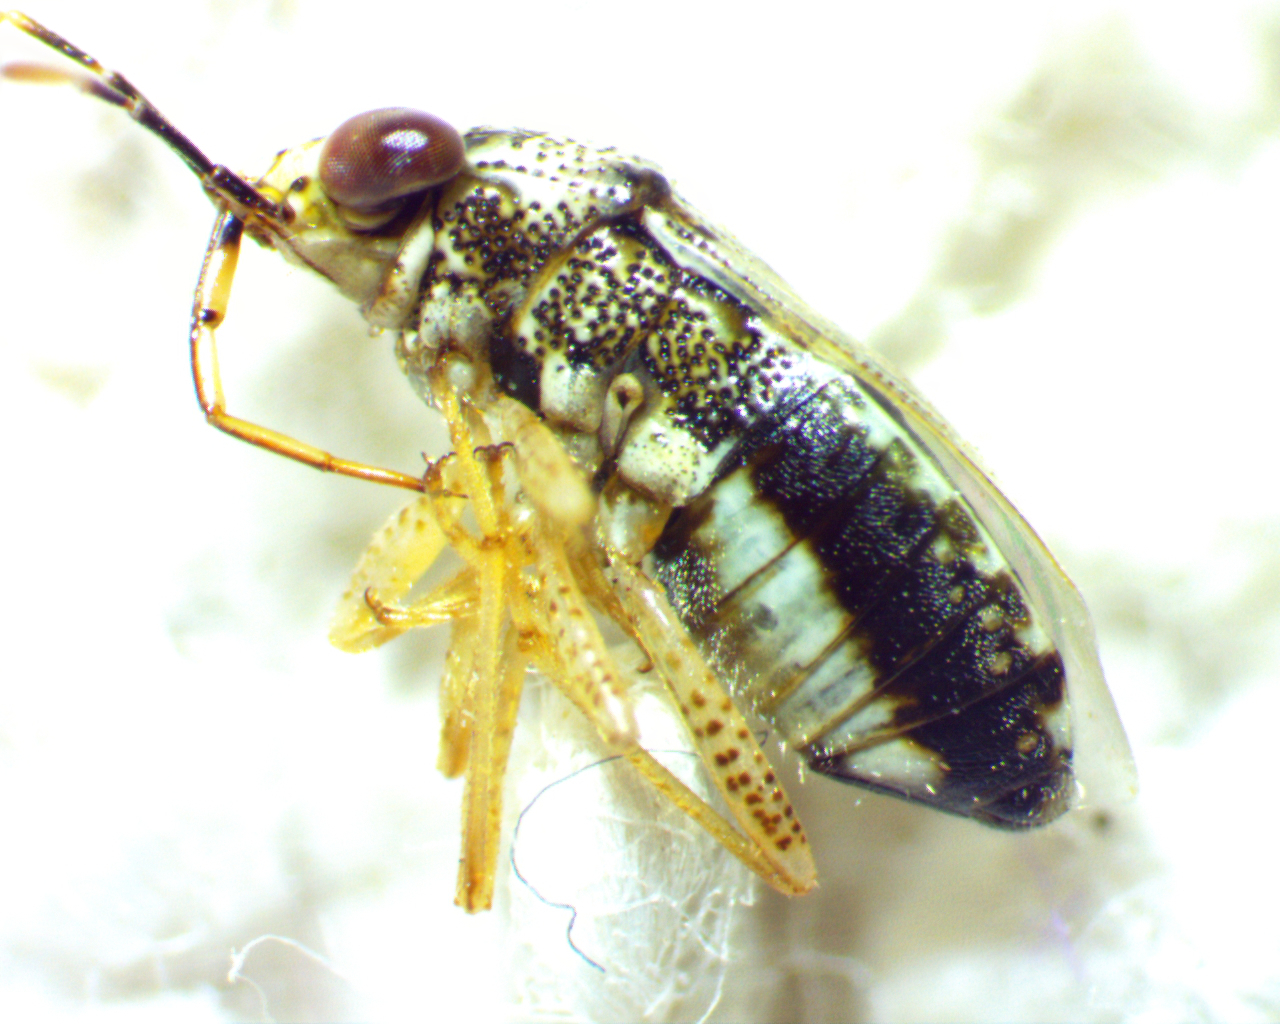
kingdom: Animalia
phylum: Arthropoda
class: Insecta
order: Hemiptera
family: Geocoridae
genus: Geocoris
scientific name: Geocoris punctipes
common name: Big-eyed bug
